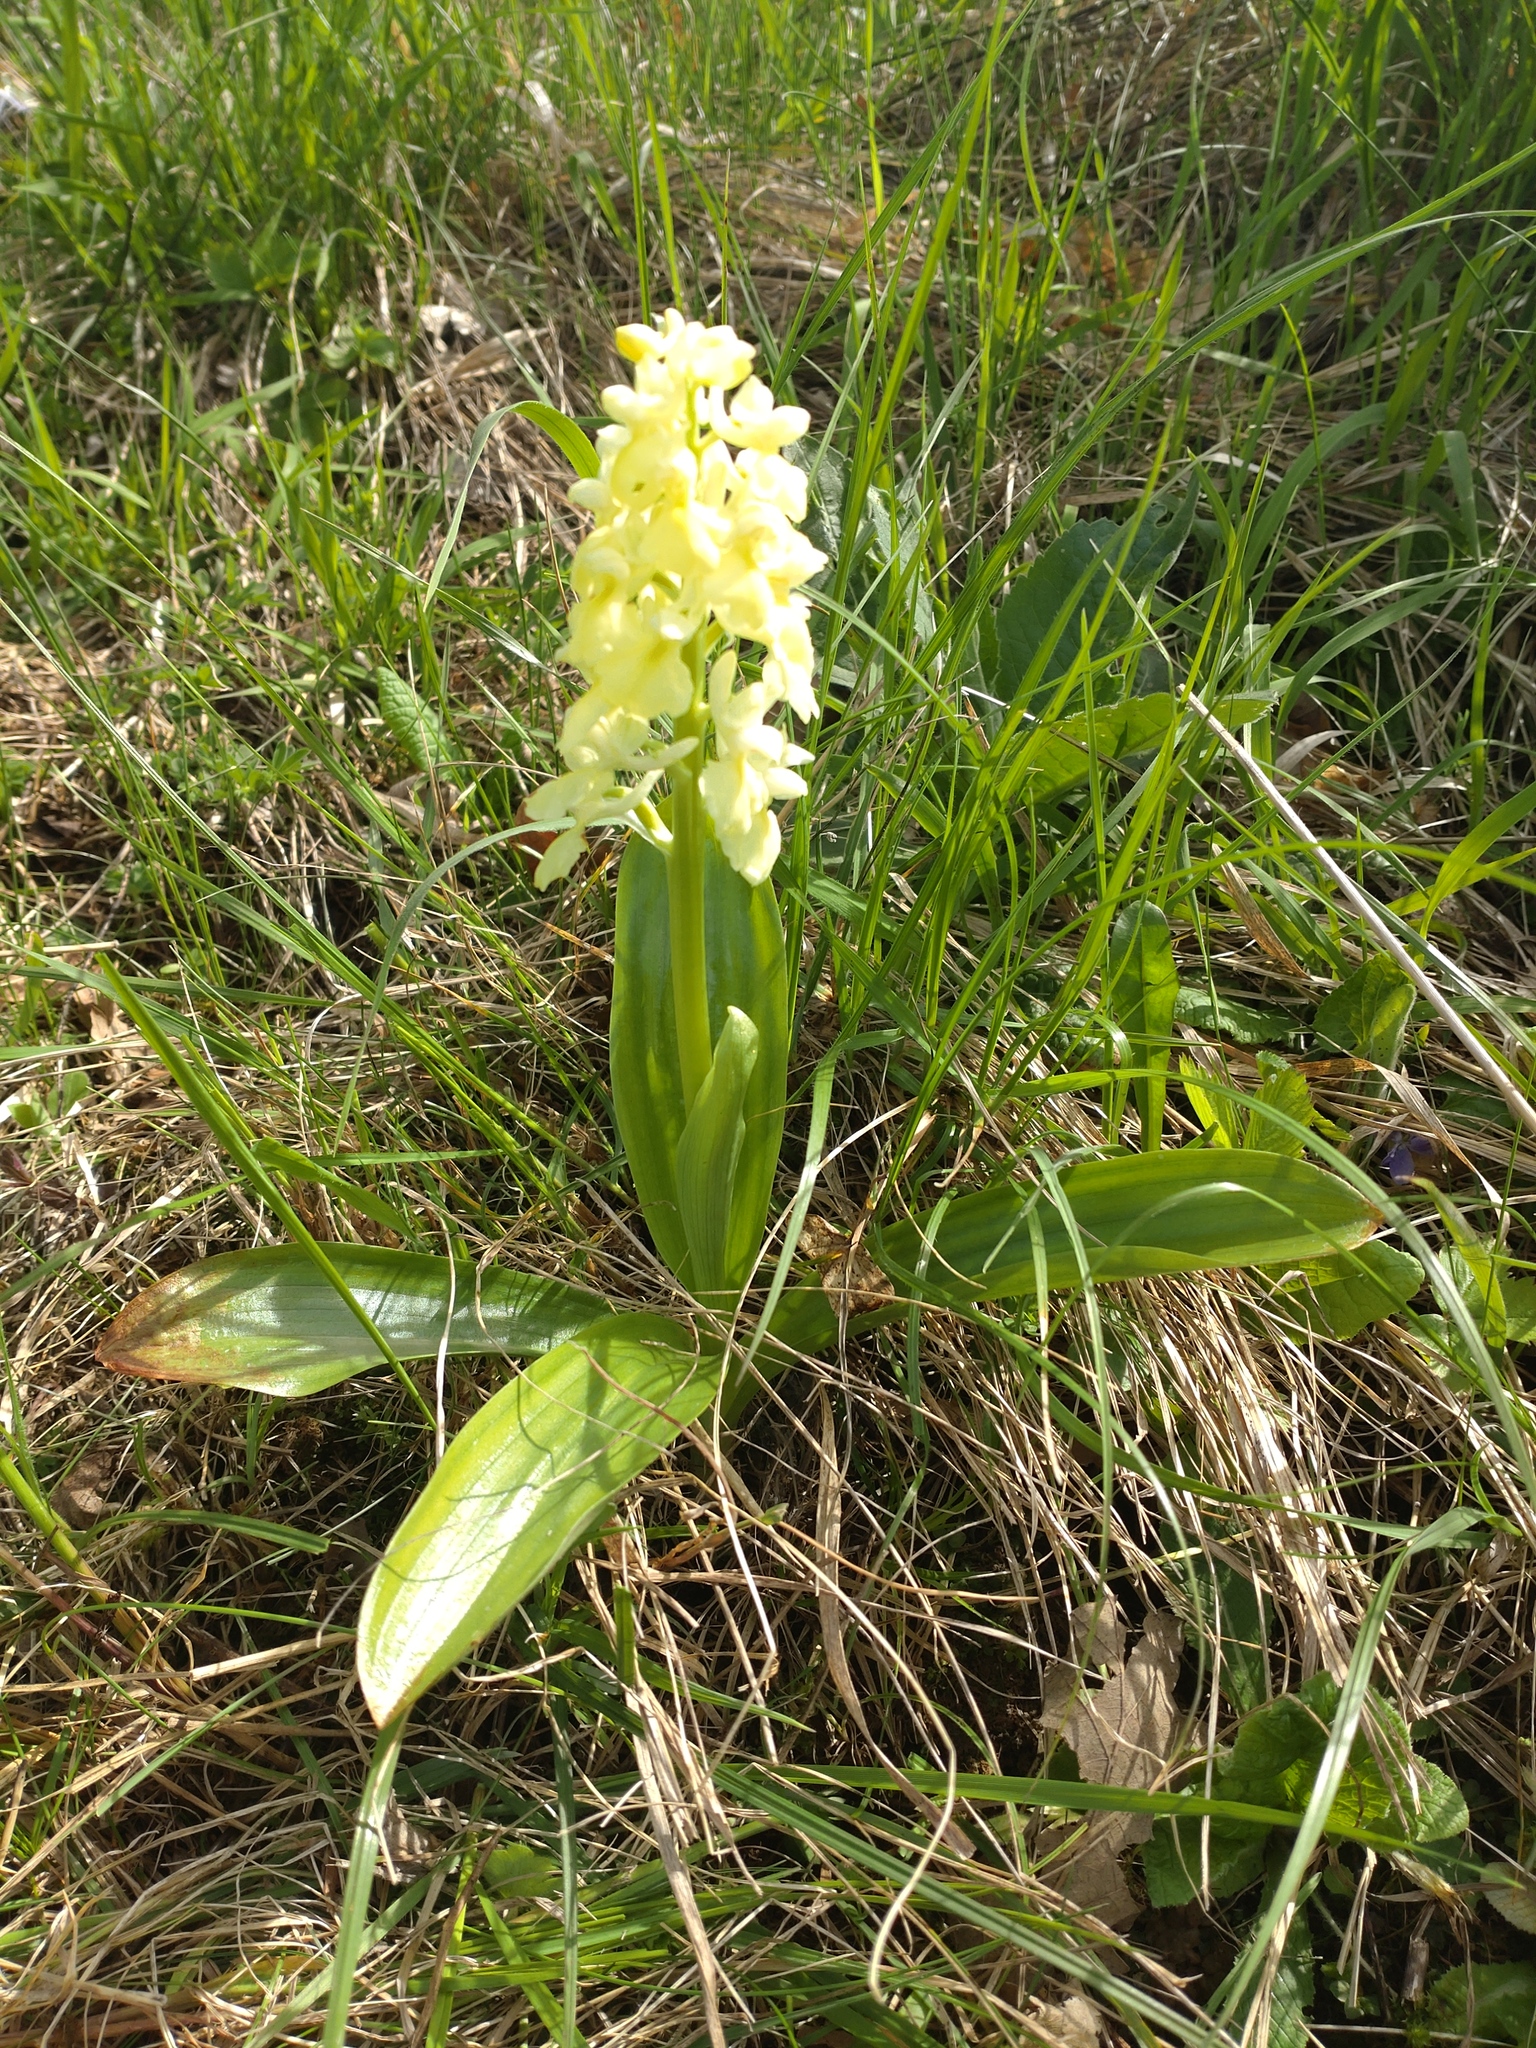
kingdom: Plantae
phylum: Tracheophyta
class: Liliopsida
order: Asparagales
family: Orchidaceae
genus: Orchis
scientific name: Orchis pallens
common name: Pale-flowered orchid
